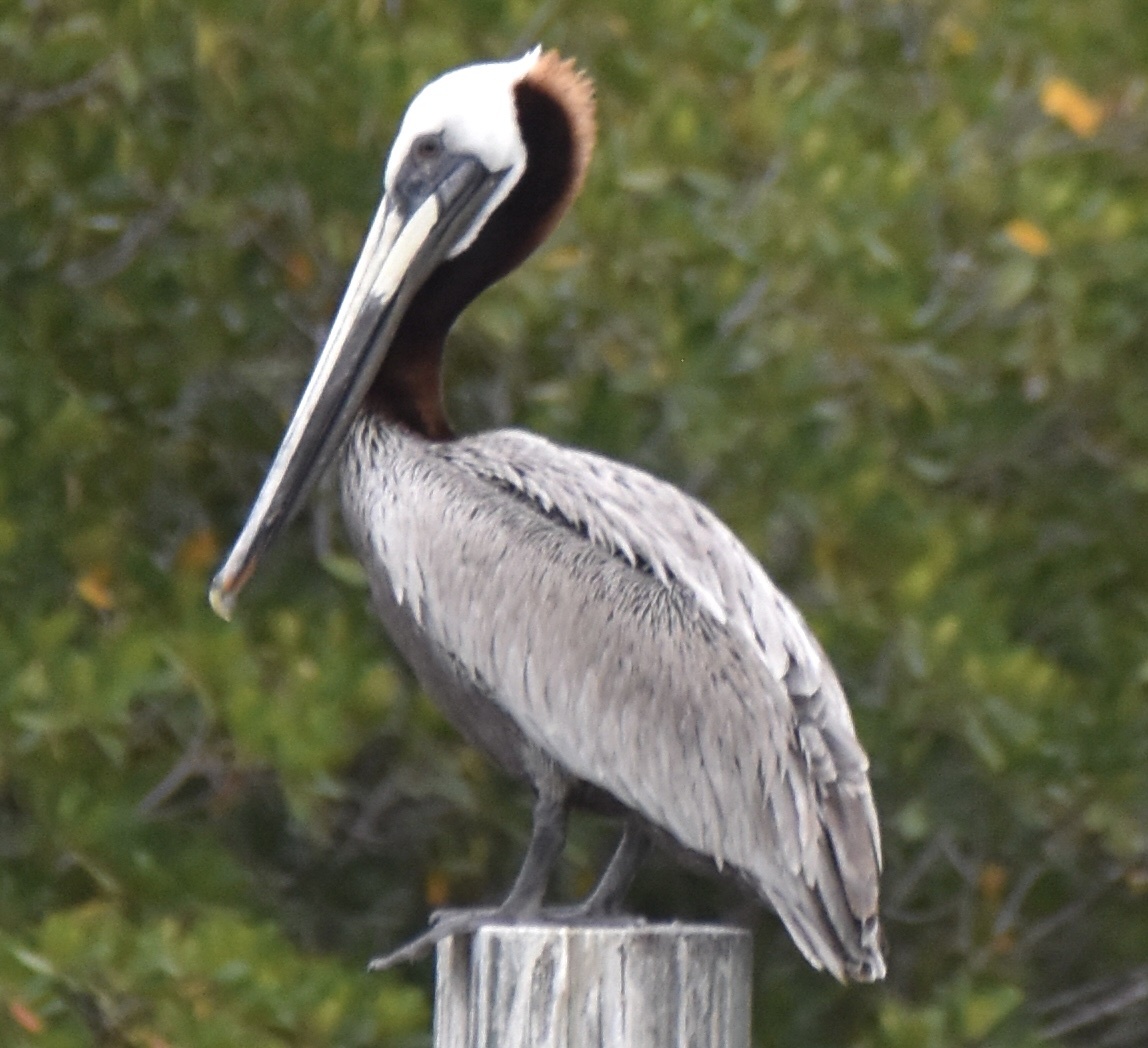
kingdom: Animalia
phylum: Chordata
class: Aves
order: Pelecaniformes
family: Pelecanidae
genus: Pelecanus
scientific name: Pelecanus occidentalis
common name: Brown pelican
